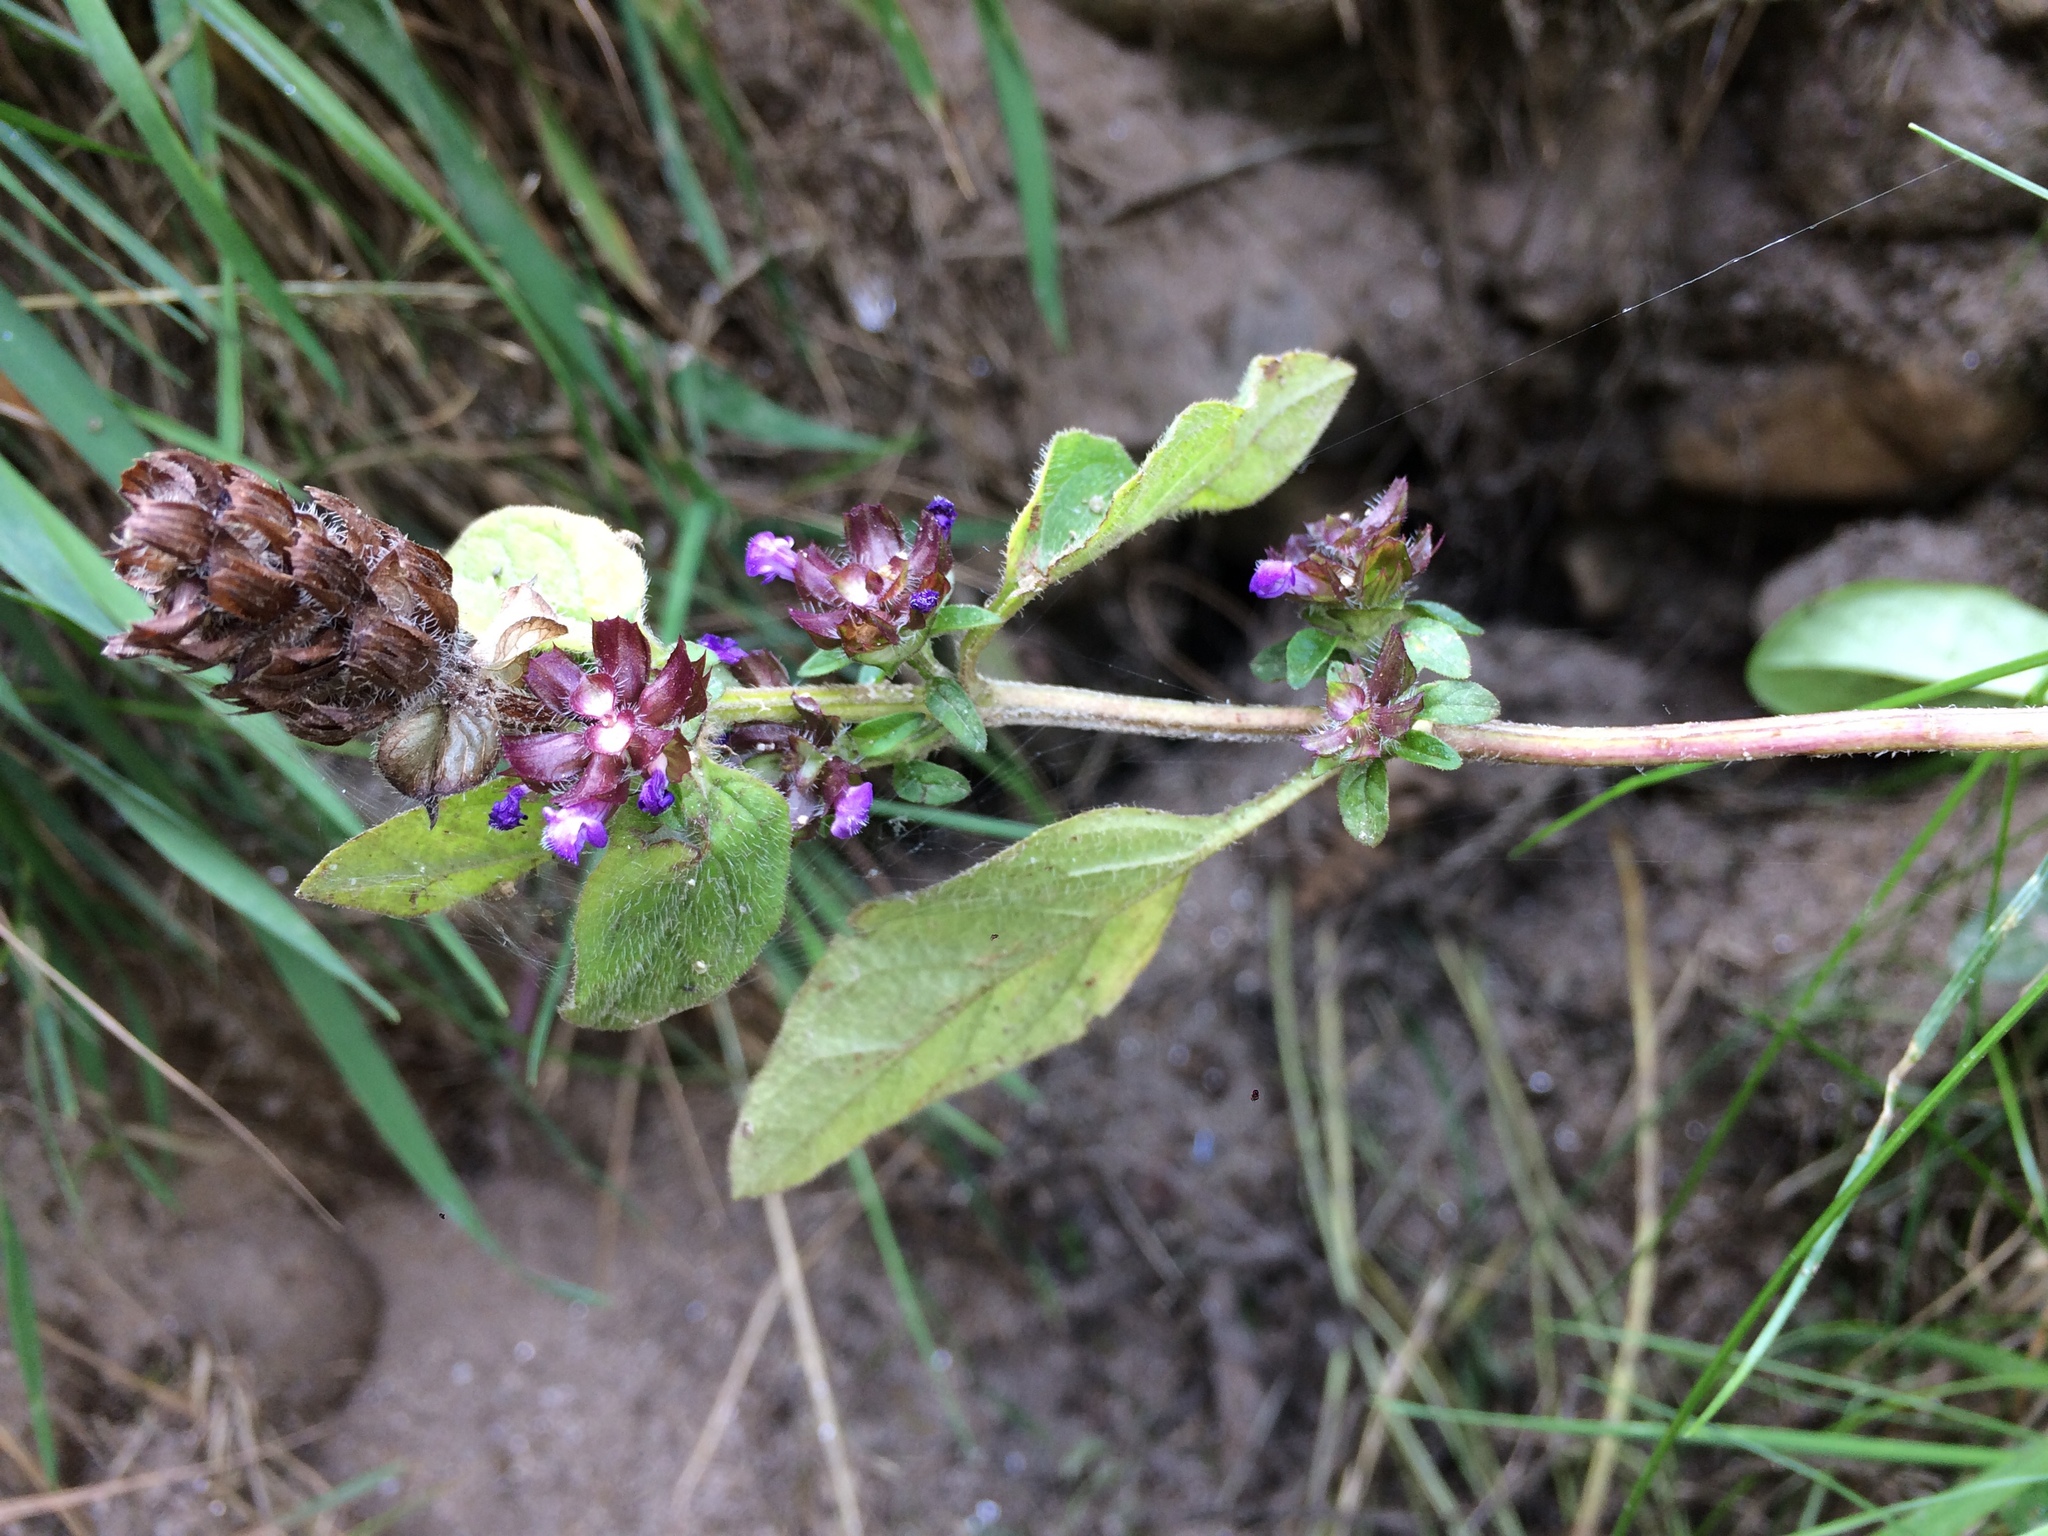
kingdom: Plantae
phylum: Tracheophyta
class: Magnoliopsida
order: Lamiales
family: Lamiaceae
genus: Prunella
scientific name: Prunella vulgaris
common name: Heal-all
